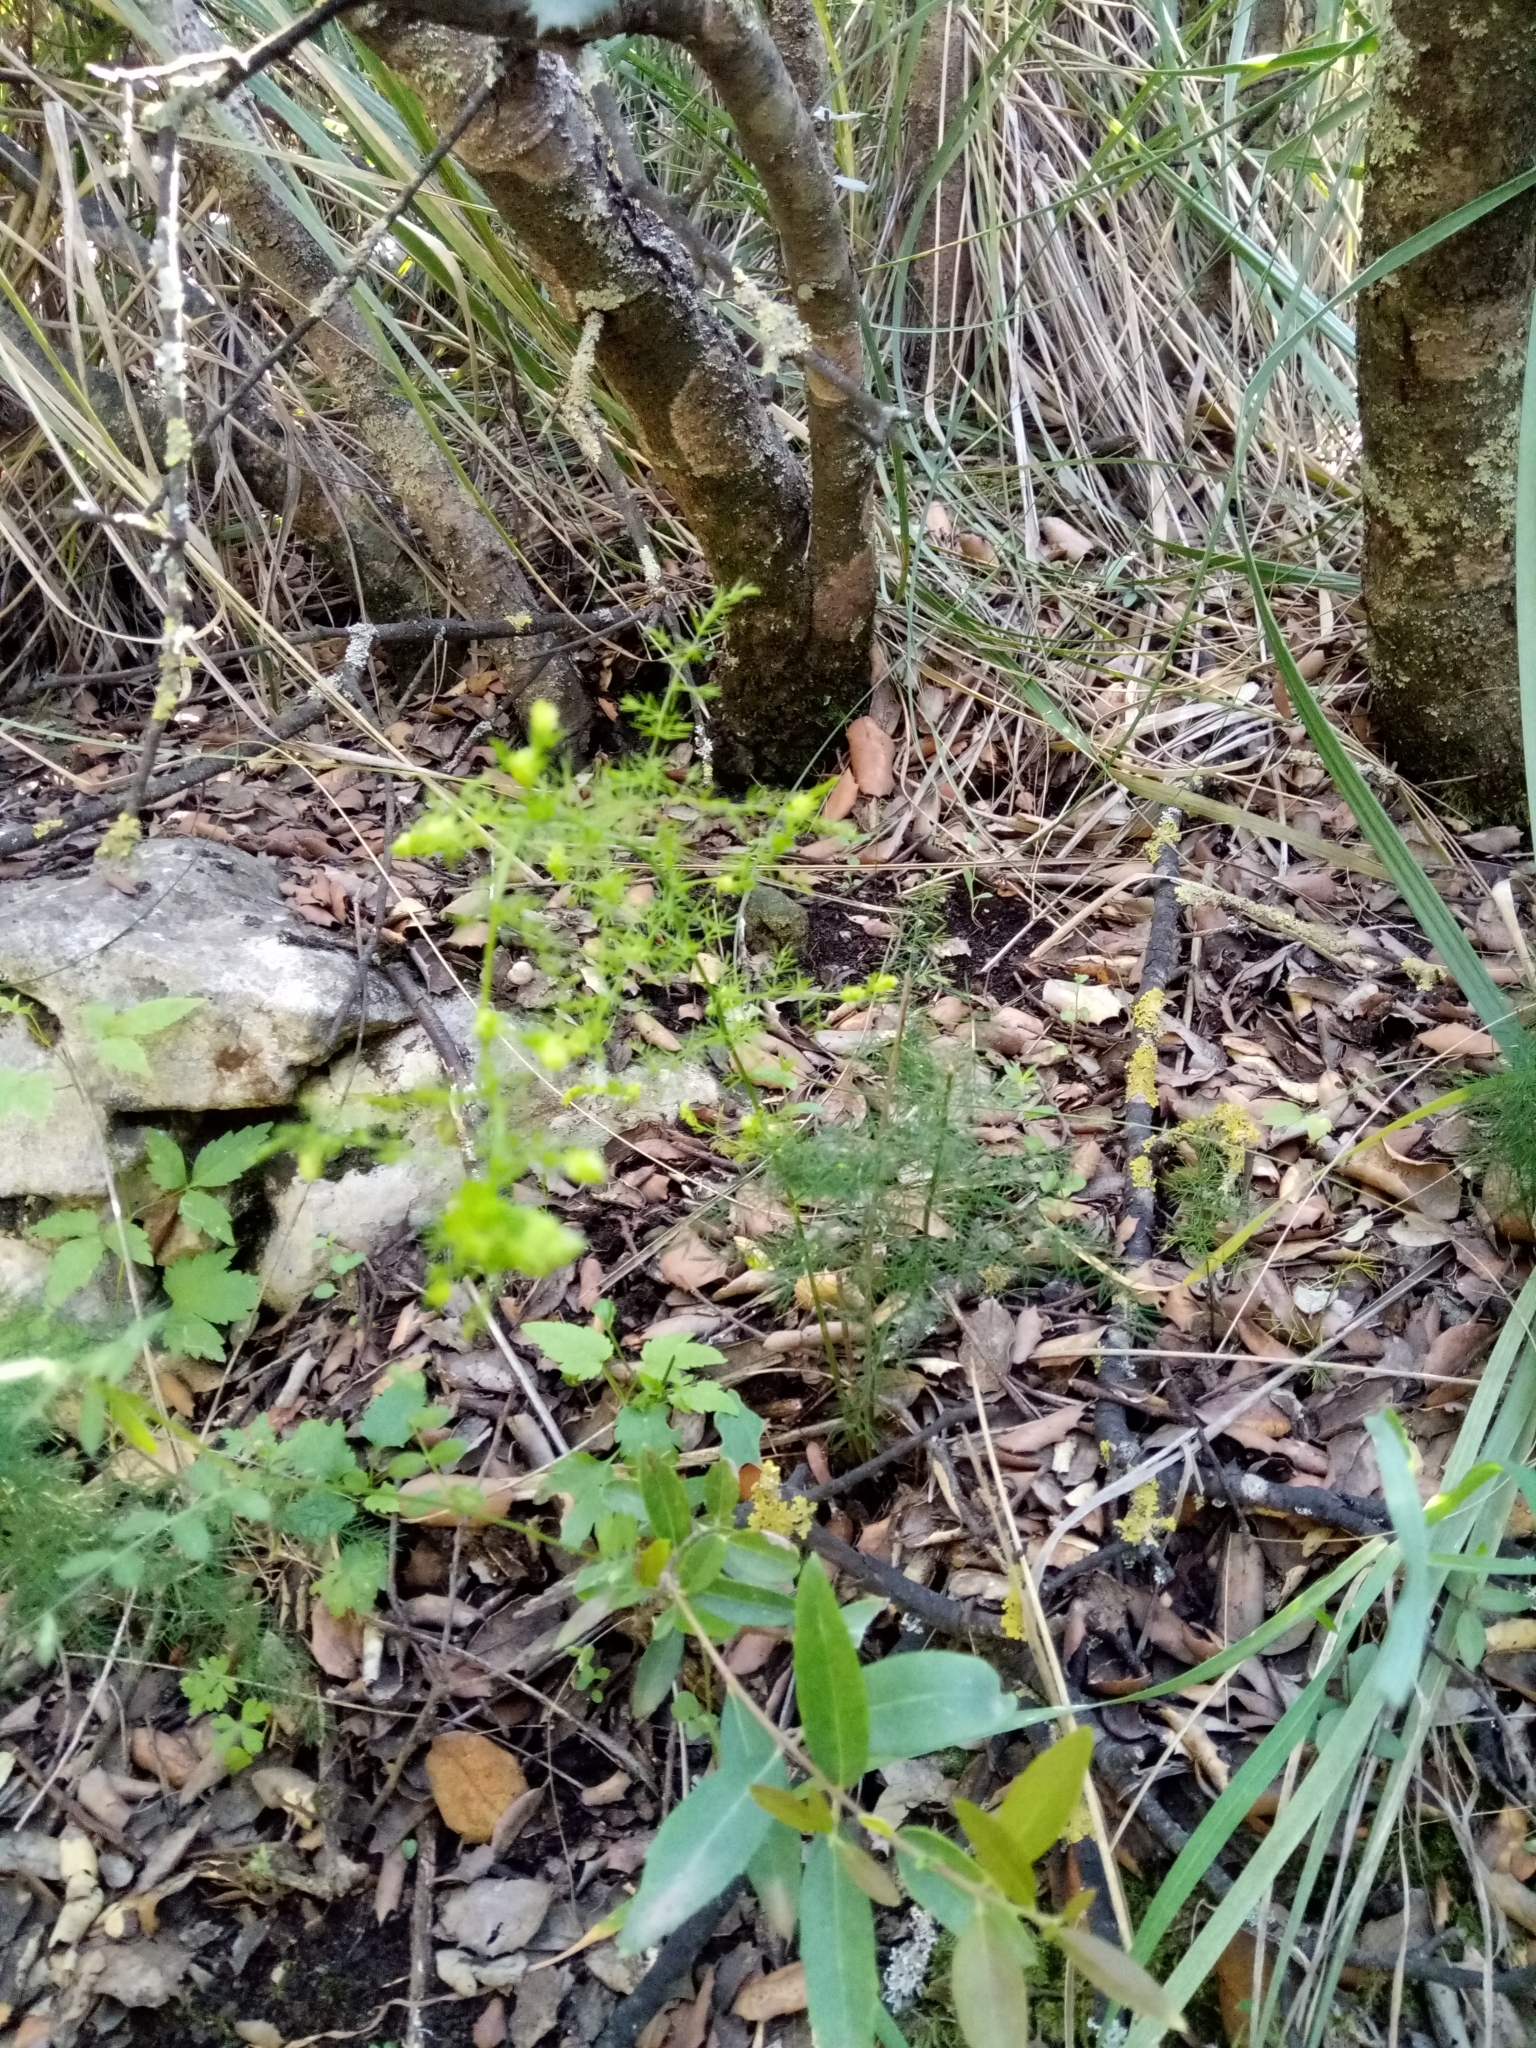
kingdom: Plantae
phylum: Tracheophyta
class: Liliopsida
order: Asparagales
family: Asparagaceae
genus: Asparagus
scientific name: Asparagus acutifolius
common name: Wild asparagus
